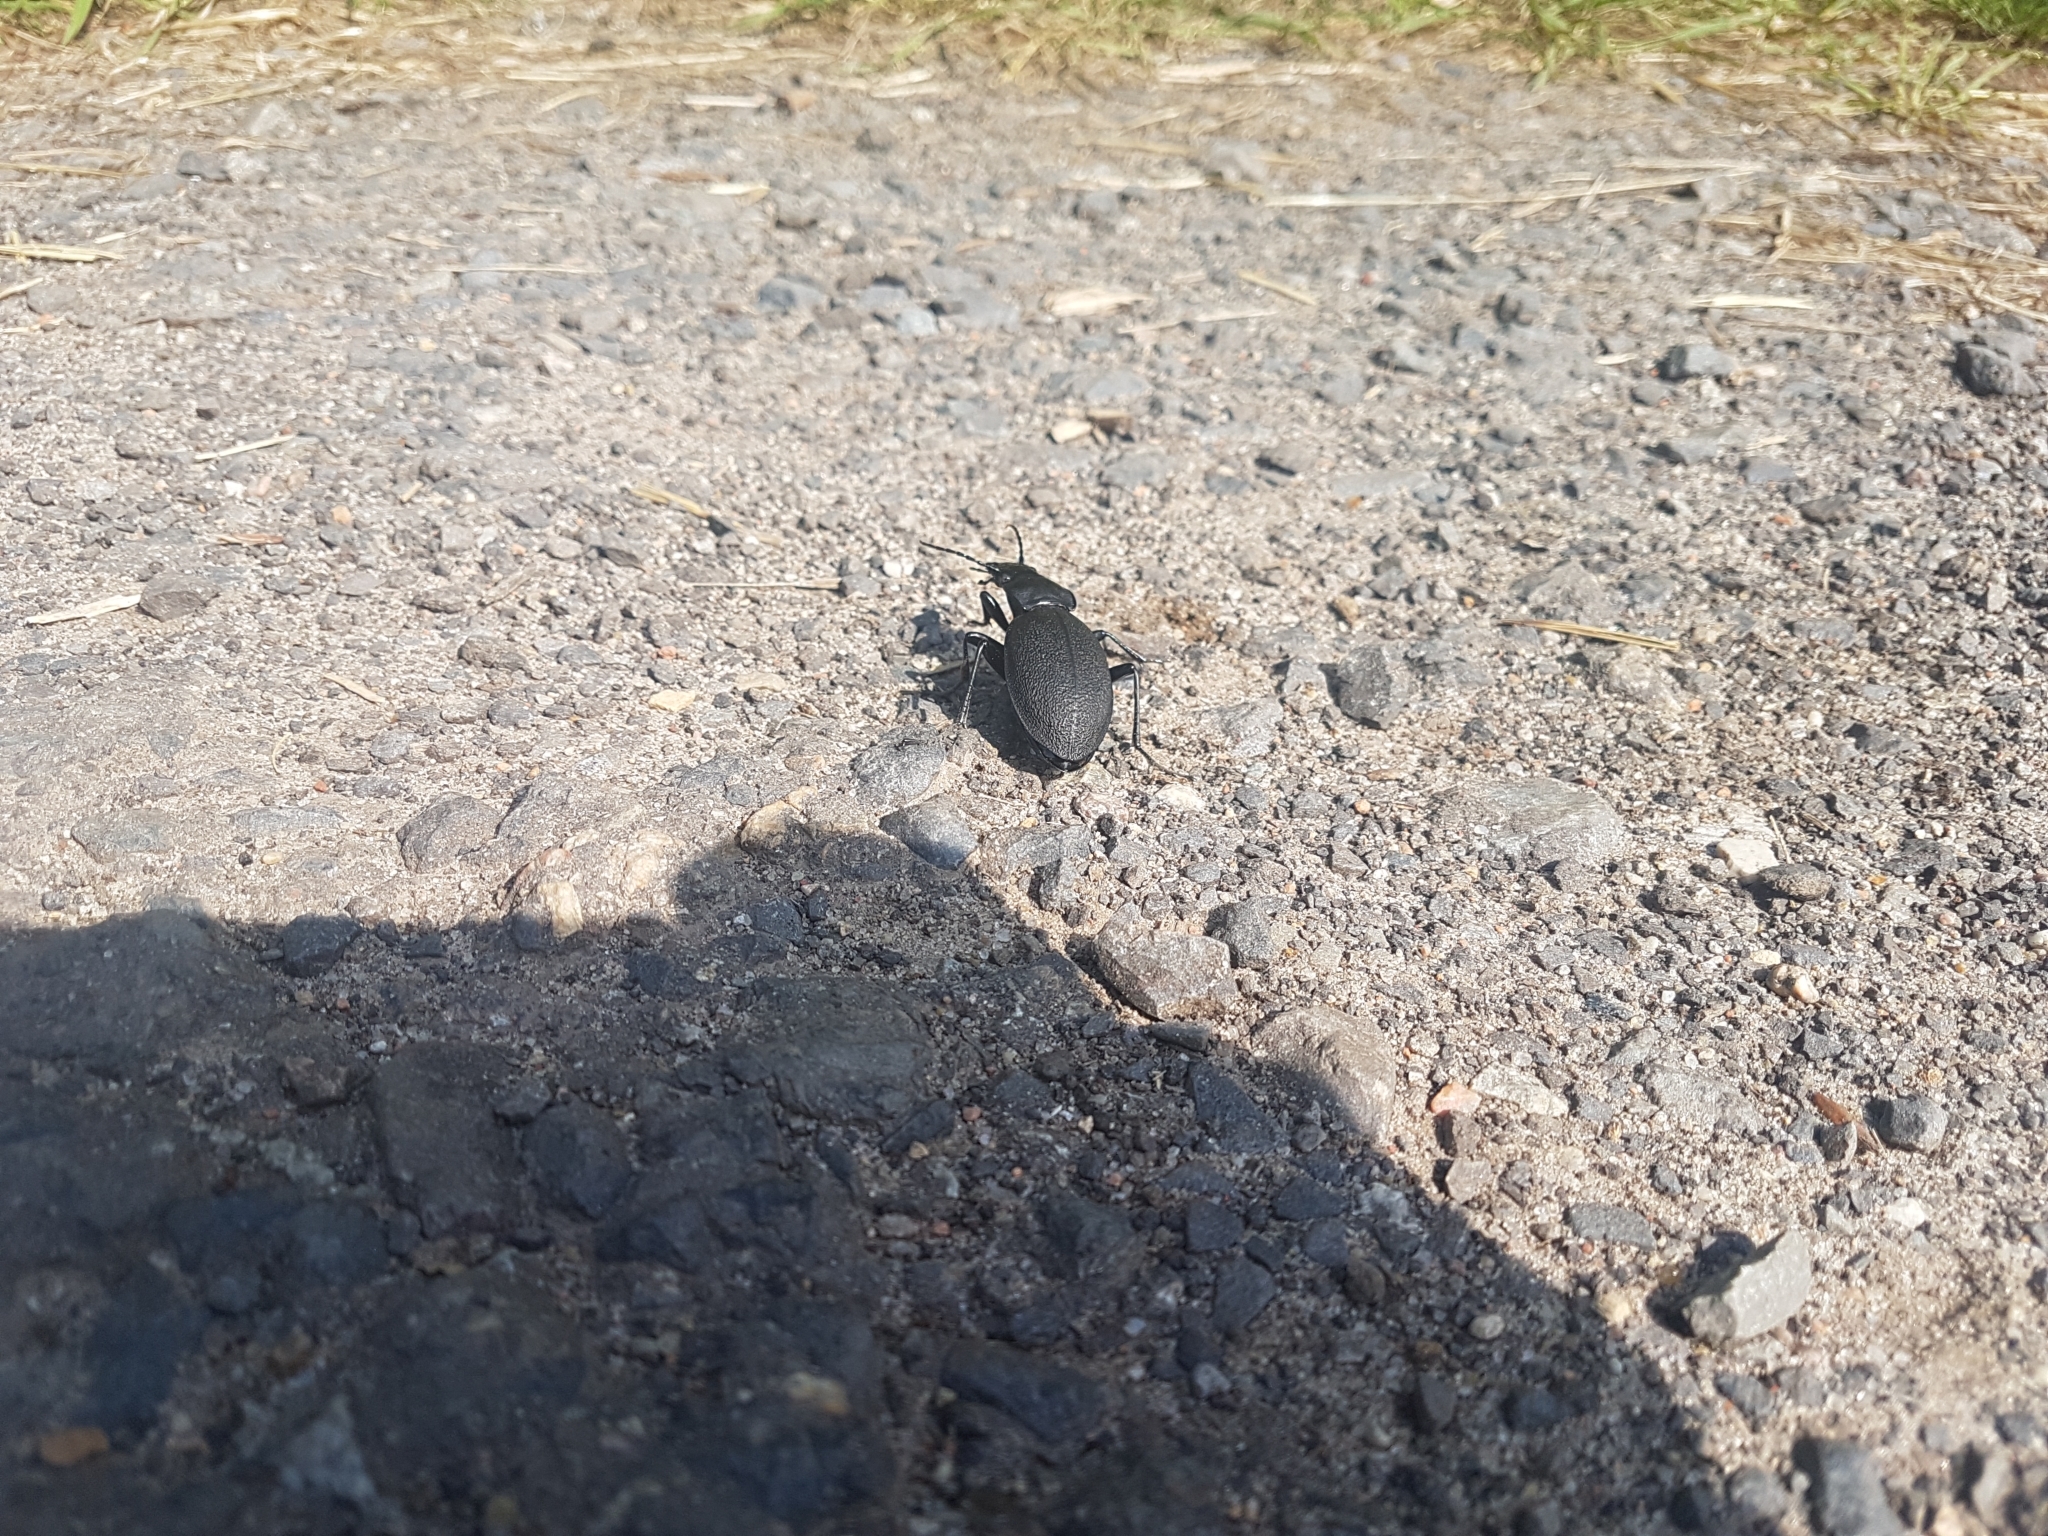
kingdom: Animalia
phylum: Arthropoda
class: Insecta
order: Coleoptera
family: Carabidae
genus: Carabus
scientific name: Carabus coriaceus
